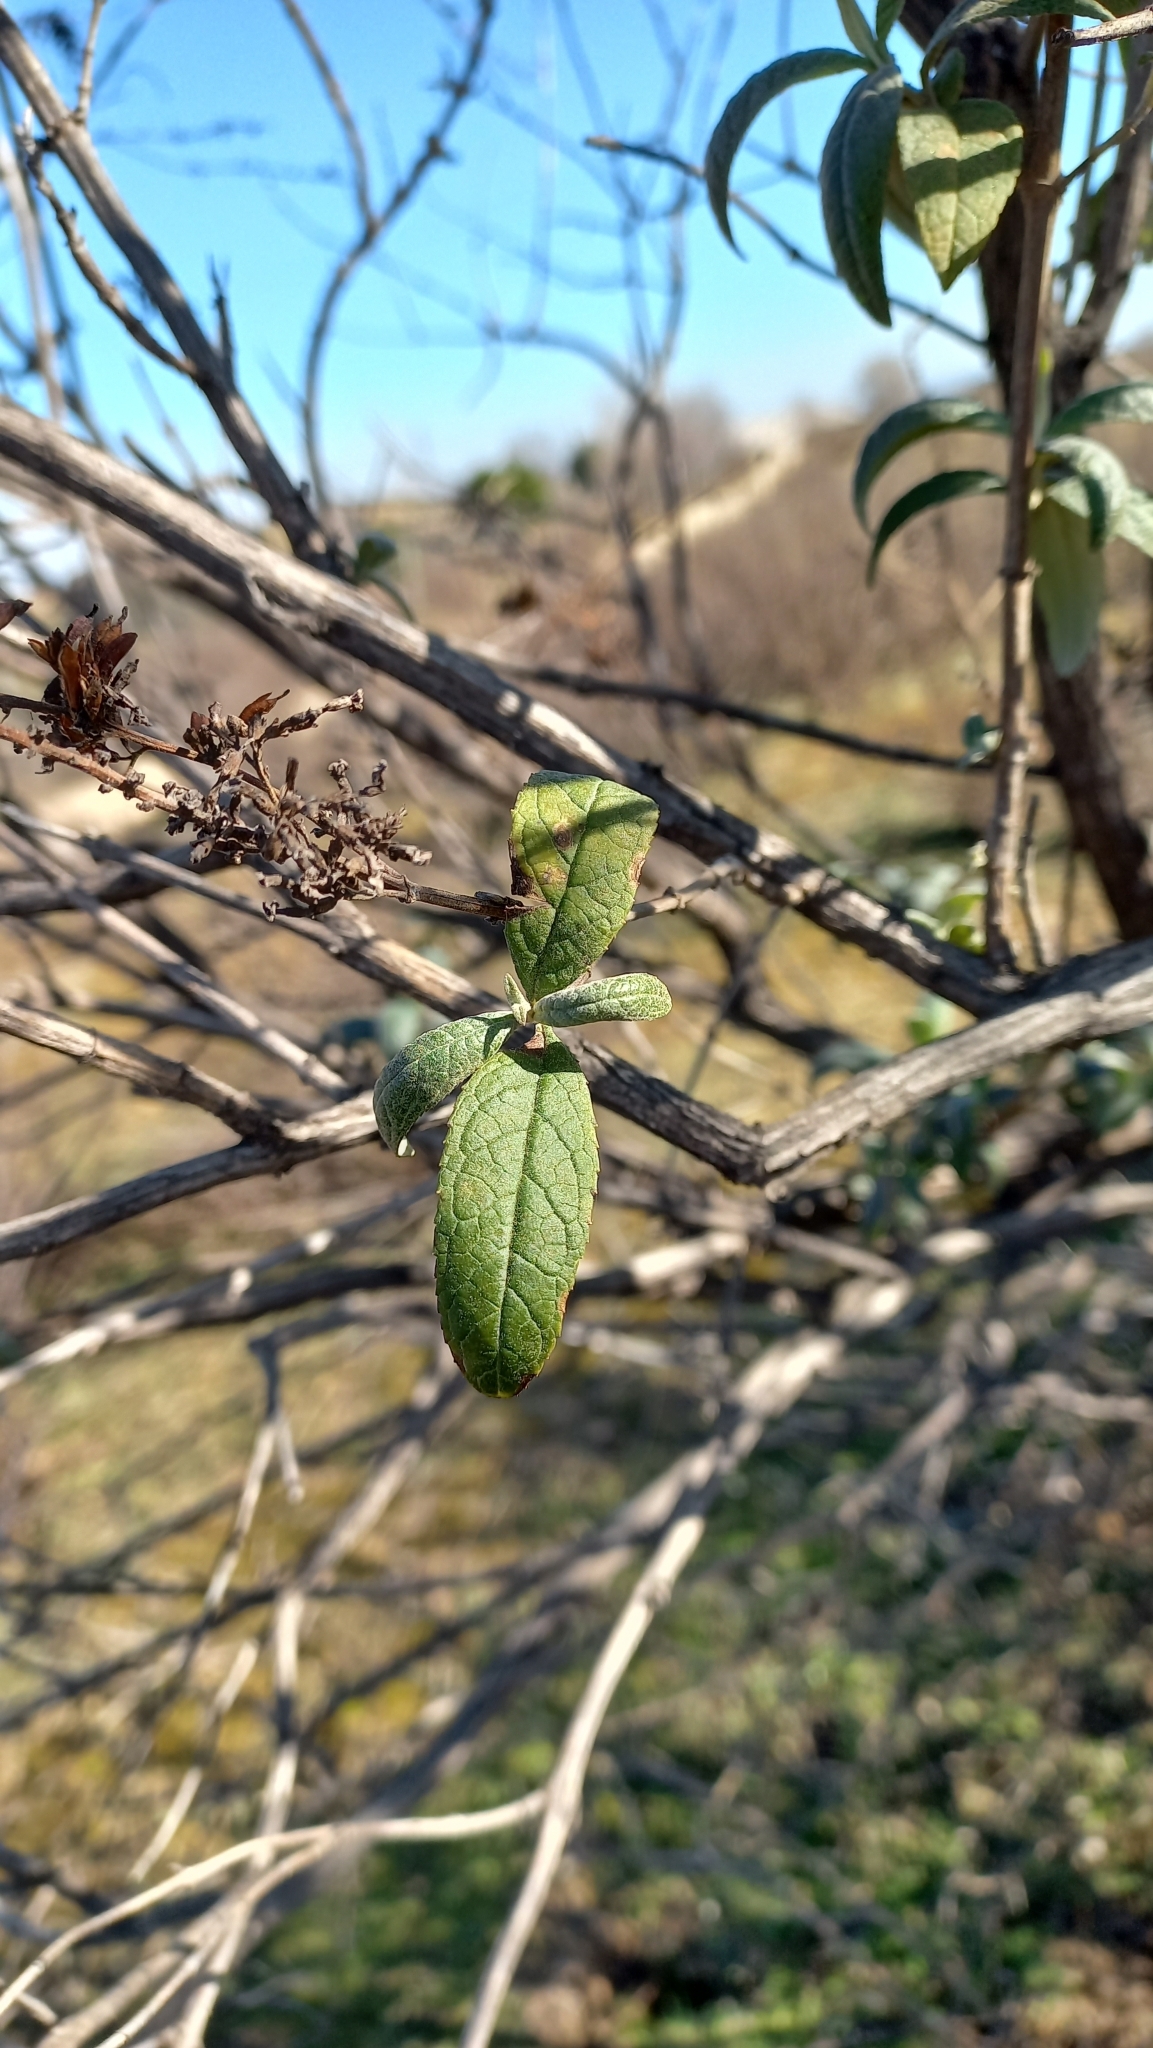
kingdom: Plantae
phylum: Tracheophyta
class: Magnoliopsida
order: Lamiales
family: Scrophulariaceae
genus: Buddleja
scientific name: Buddleja davidii
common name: Butterfly-bush
